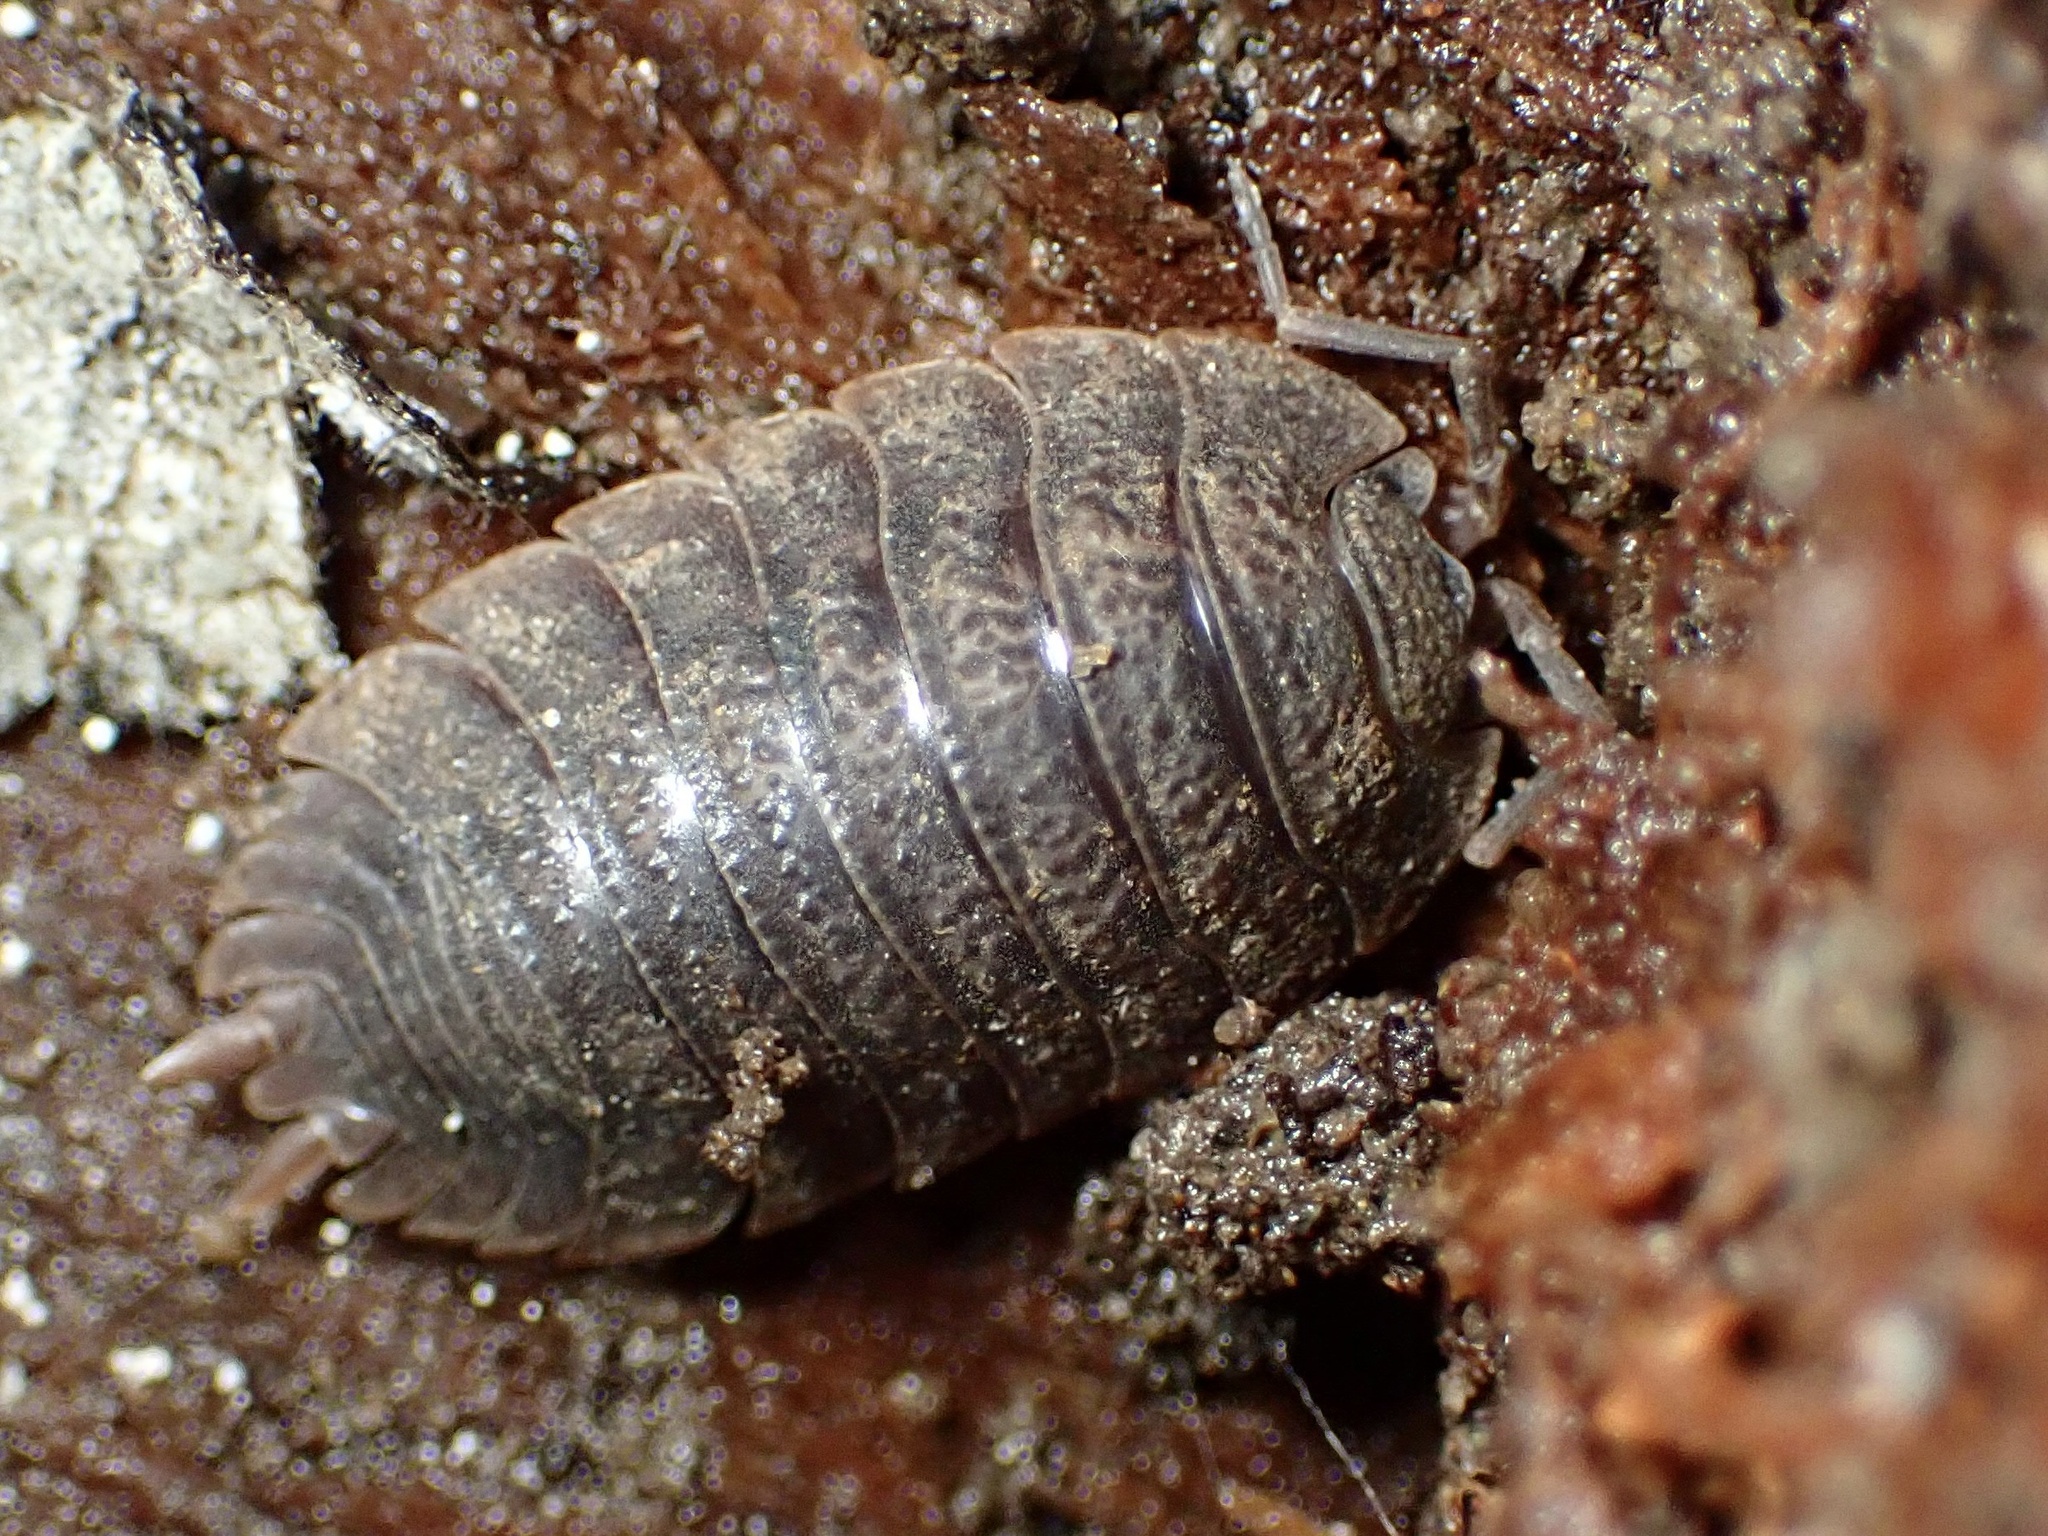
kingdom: Animalia
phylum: Arthropoda
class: Malacostraca
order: Isopoda
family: Porcellionidae
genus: Porcellio
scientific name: Porcellio dilatatus
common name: Isopod
